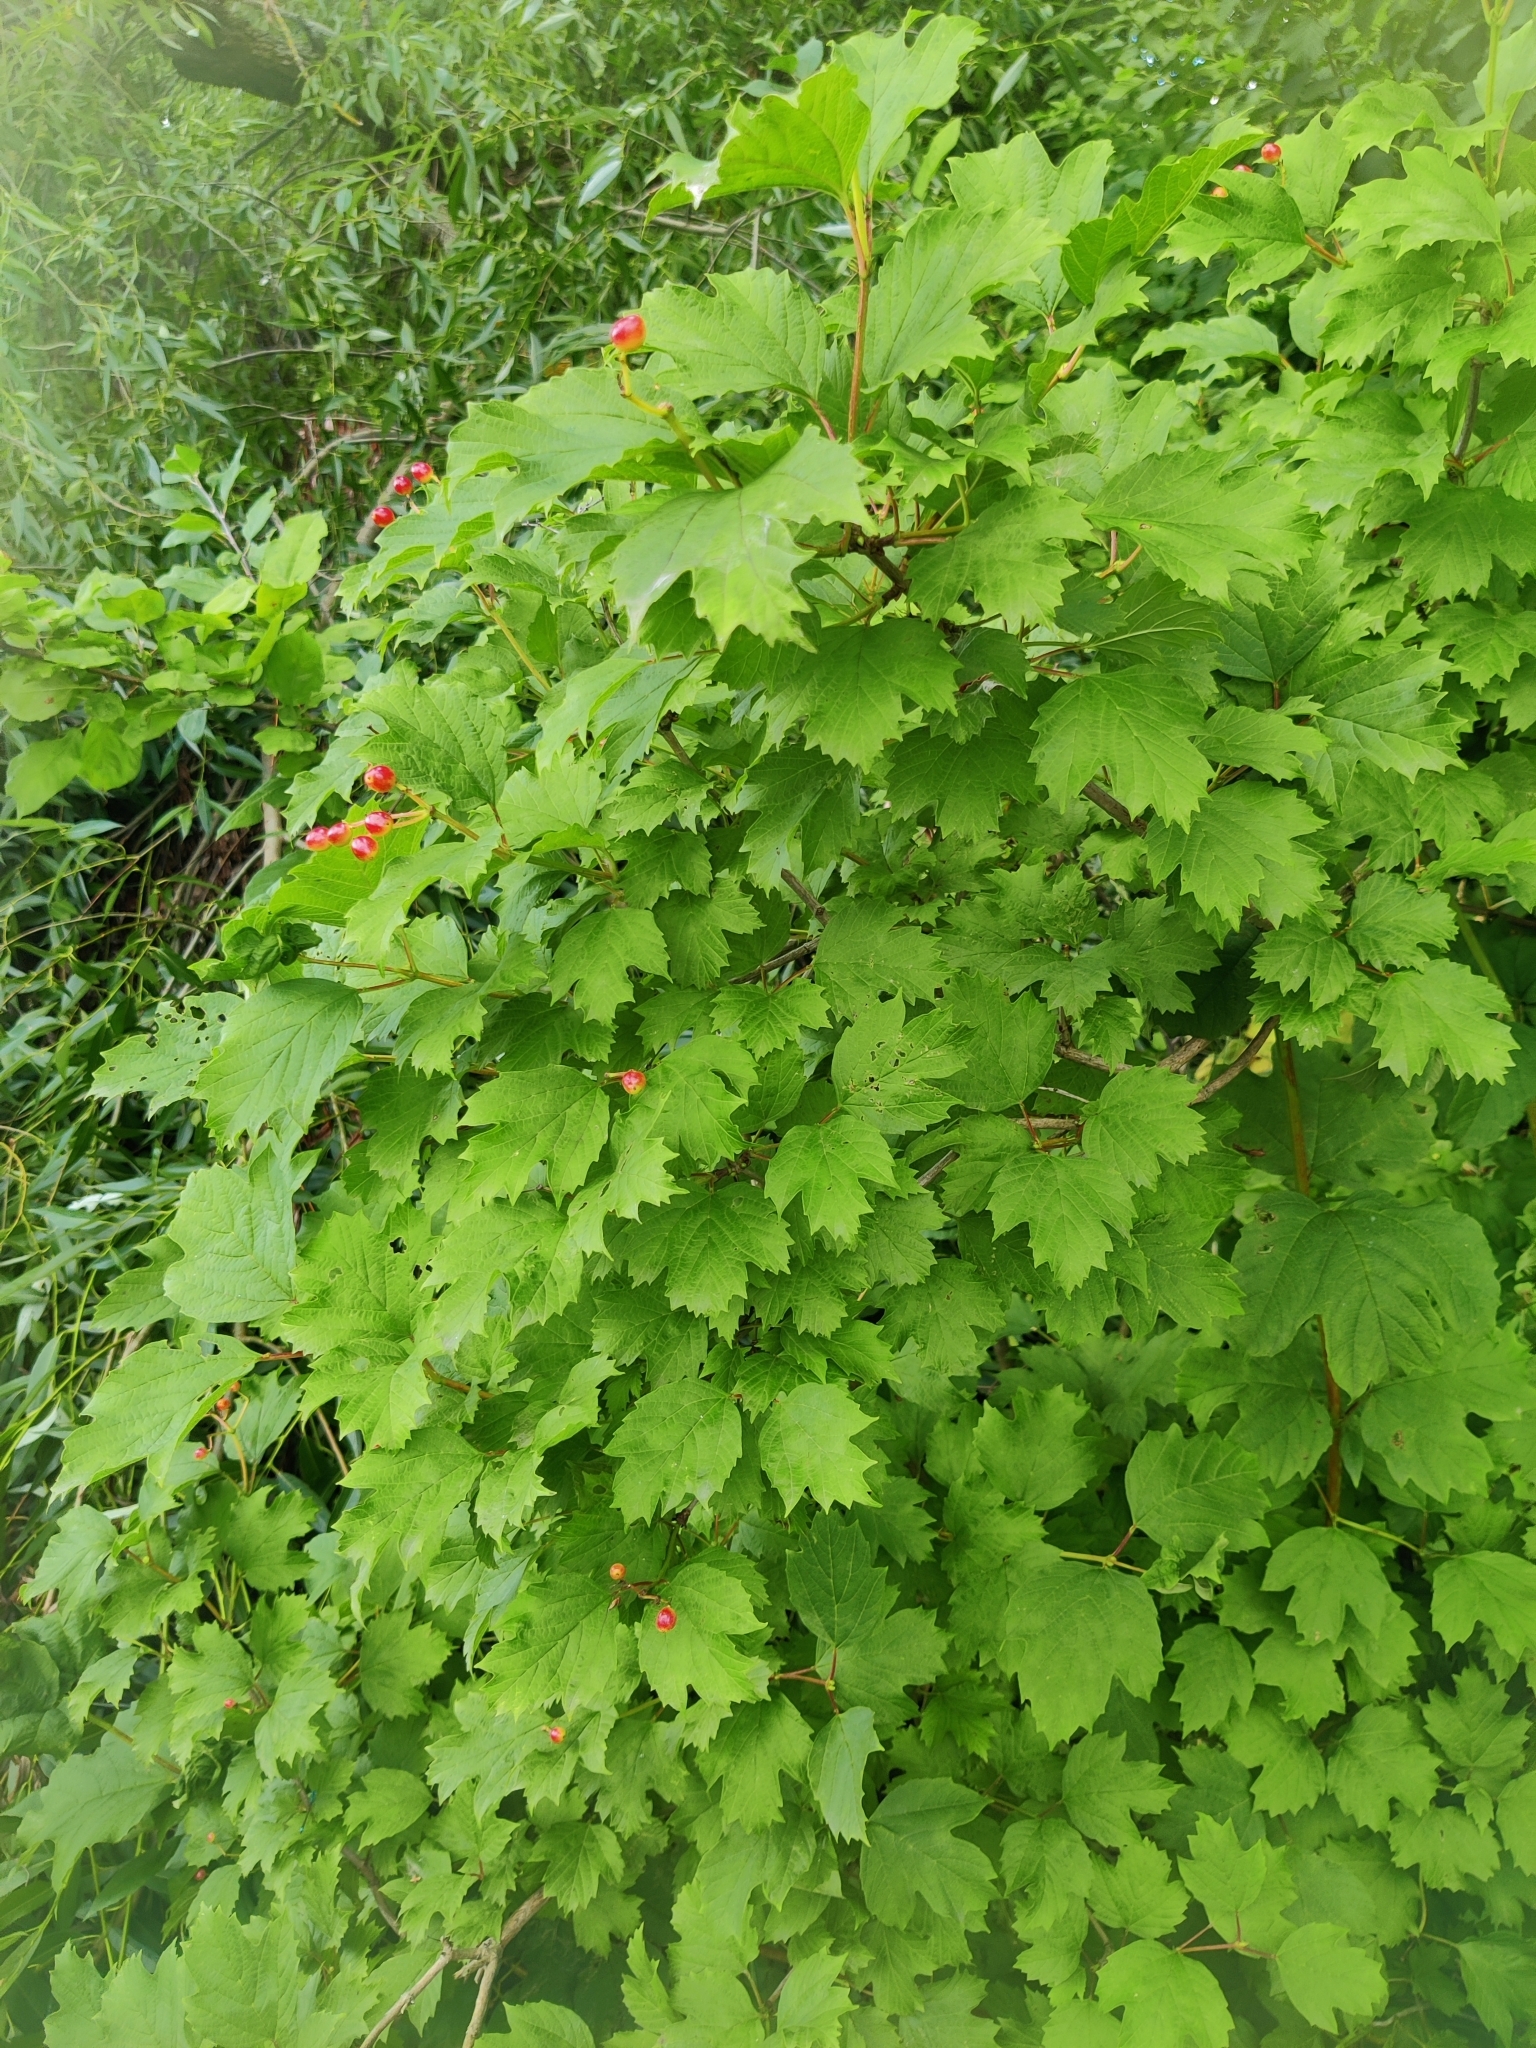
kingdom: Plantae
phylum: Tracheophyta
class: Magnoliopsida
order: Dipsacales
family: Viburnaceae
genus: Viburnum
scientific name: Viburnum opulus
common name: Guelder-rose
